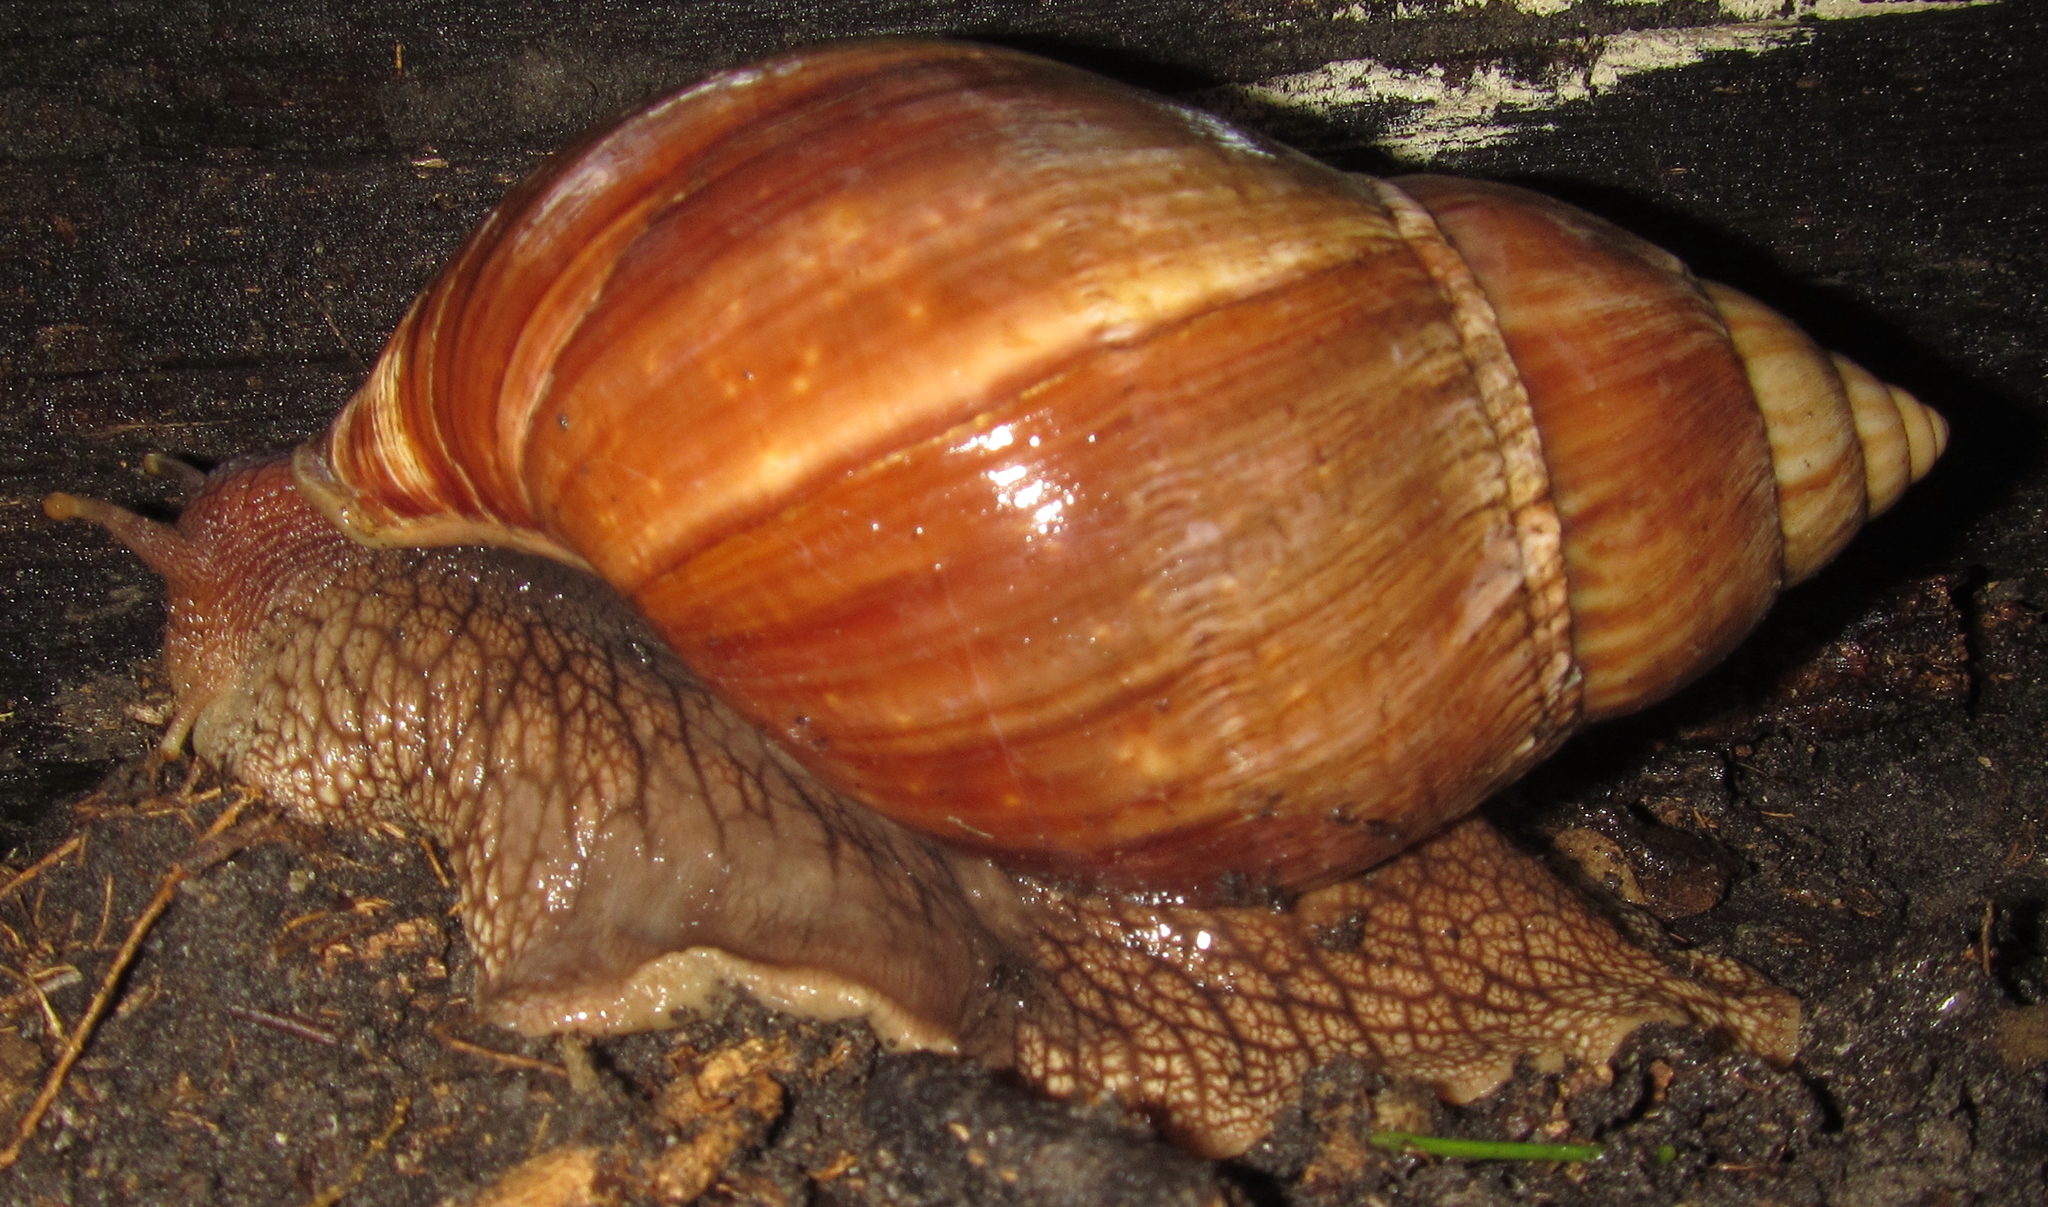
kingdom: Animalia
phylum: Mollusca
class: Gastropoda
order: Stylommatophora
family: Achatinidae
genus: Lissachatina
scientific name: Lissachatina immaculata
